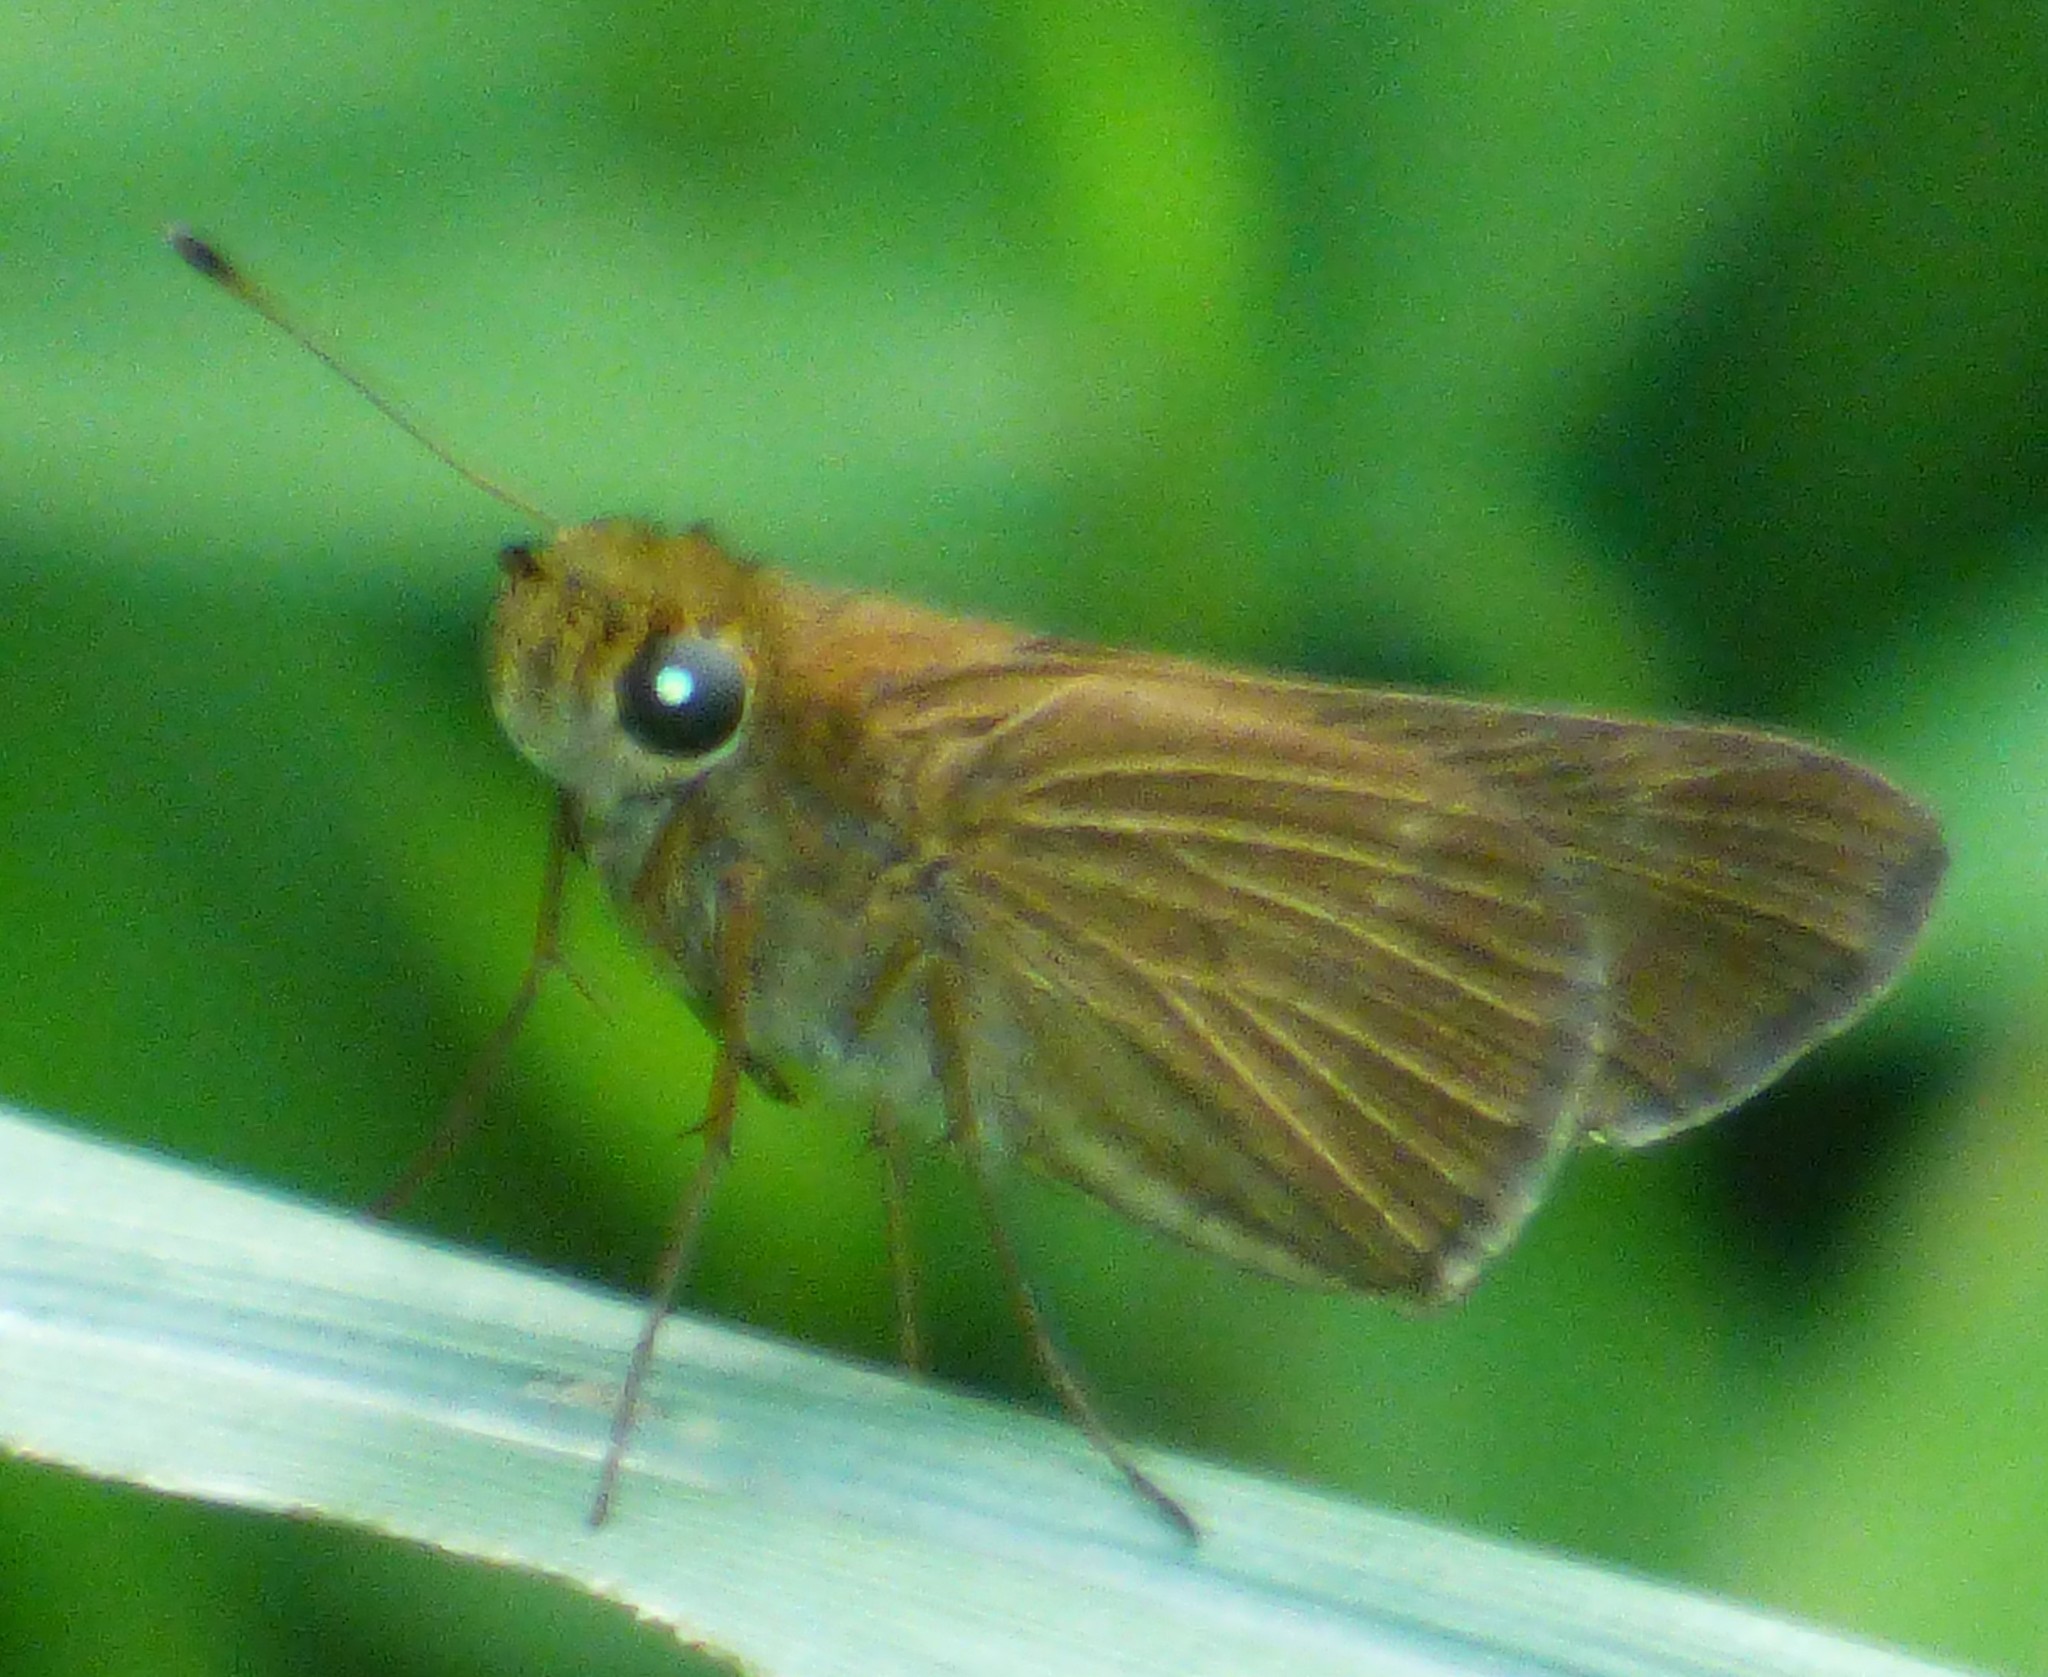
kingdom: Animalia
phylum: Arthropoda
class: Insecta
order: Lepidoptera
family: Hesperiidae
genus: Panoquina
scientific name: Panoquina ocola
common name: Ocola skipper
